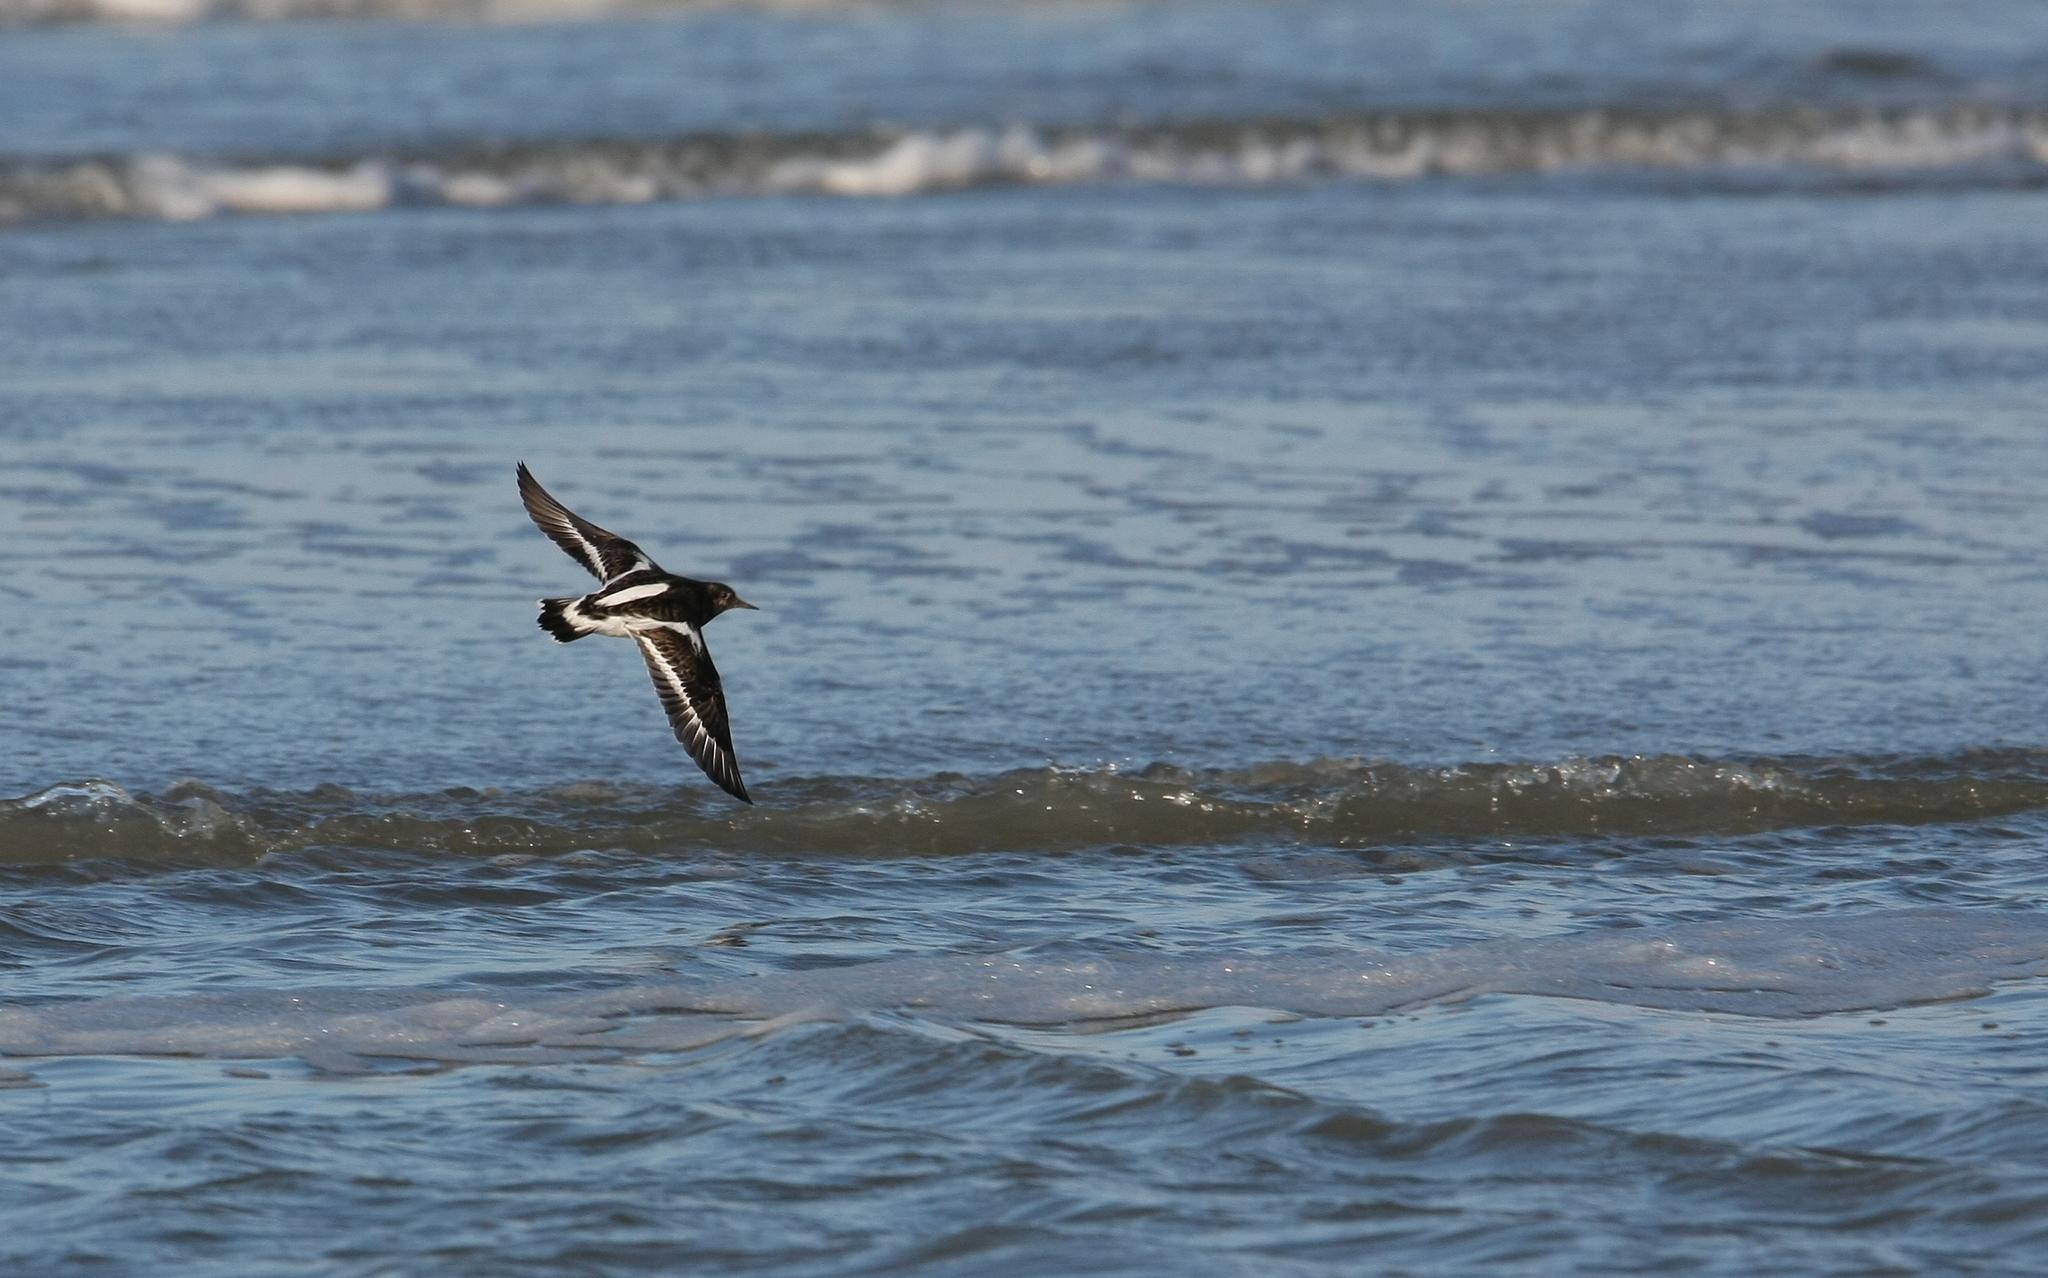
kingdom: Animalia
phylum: Chordata
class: Aves
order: Charadriiformes
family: Scolopacidae
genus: Arenaria
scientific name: Arenaria interpres
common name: Ruddy turnstone
